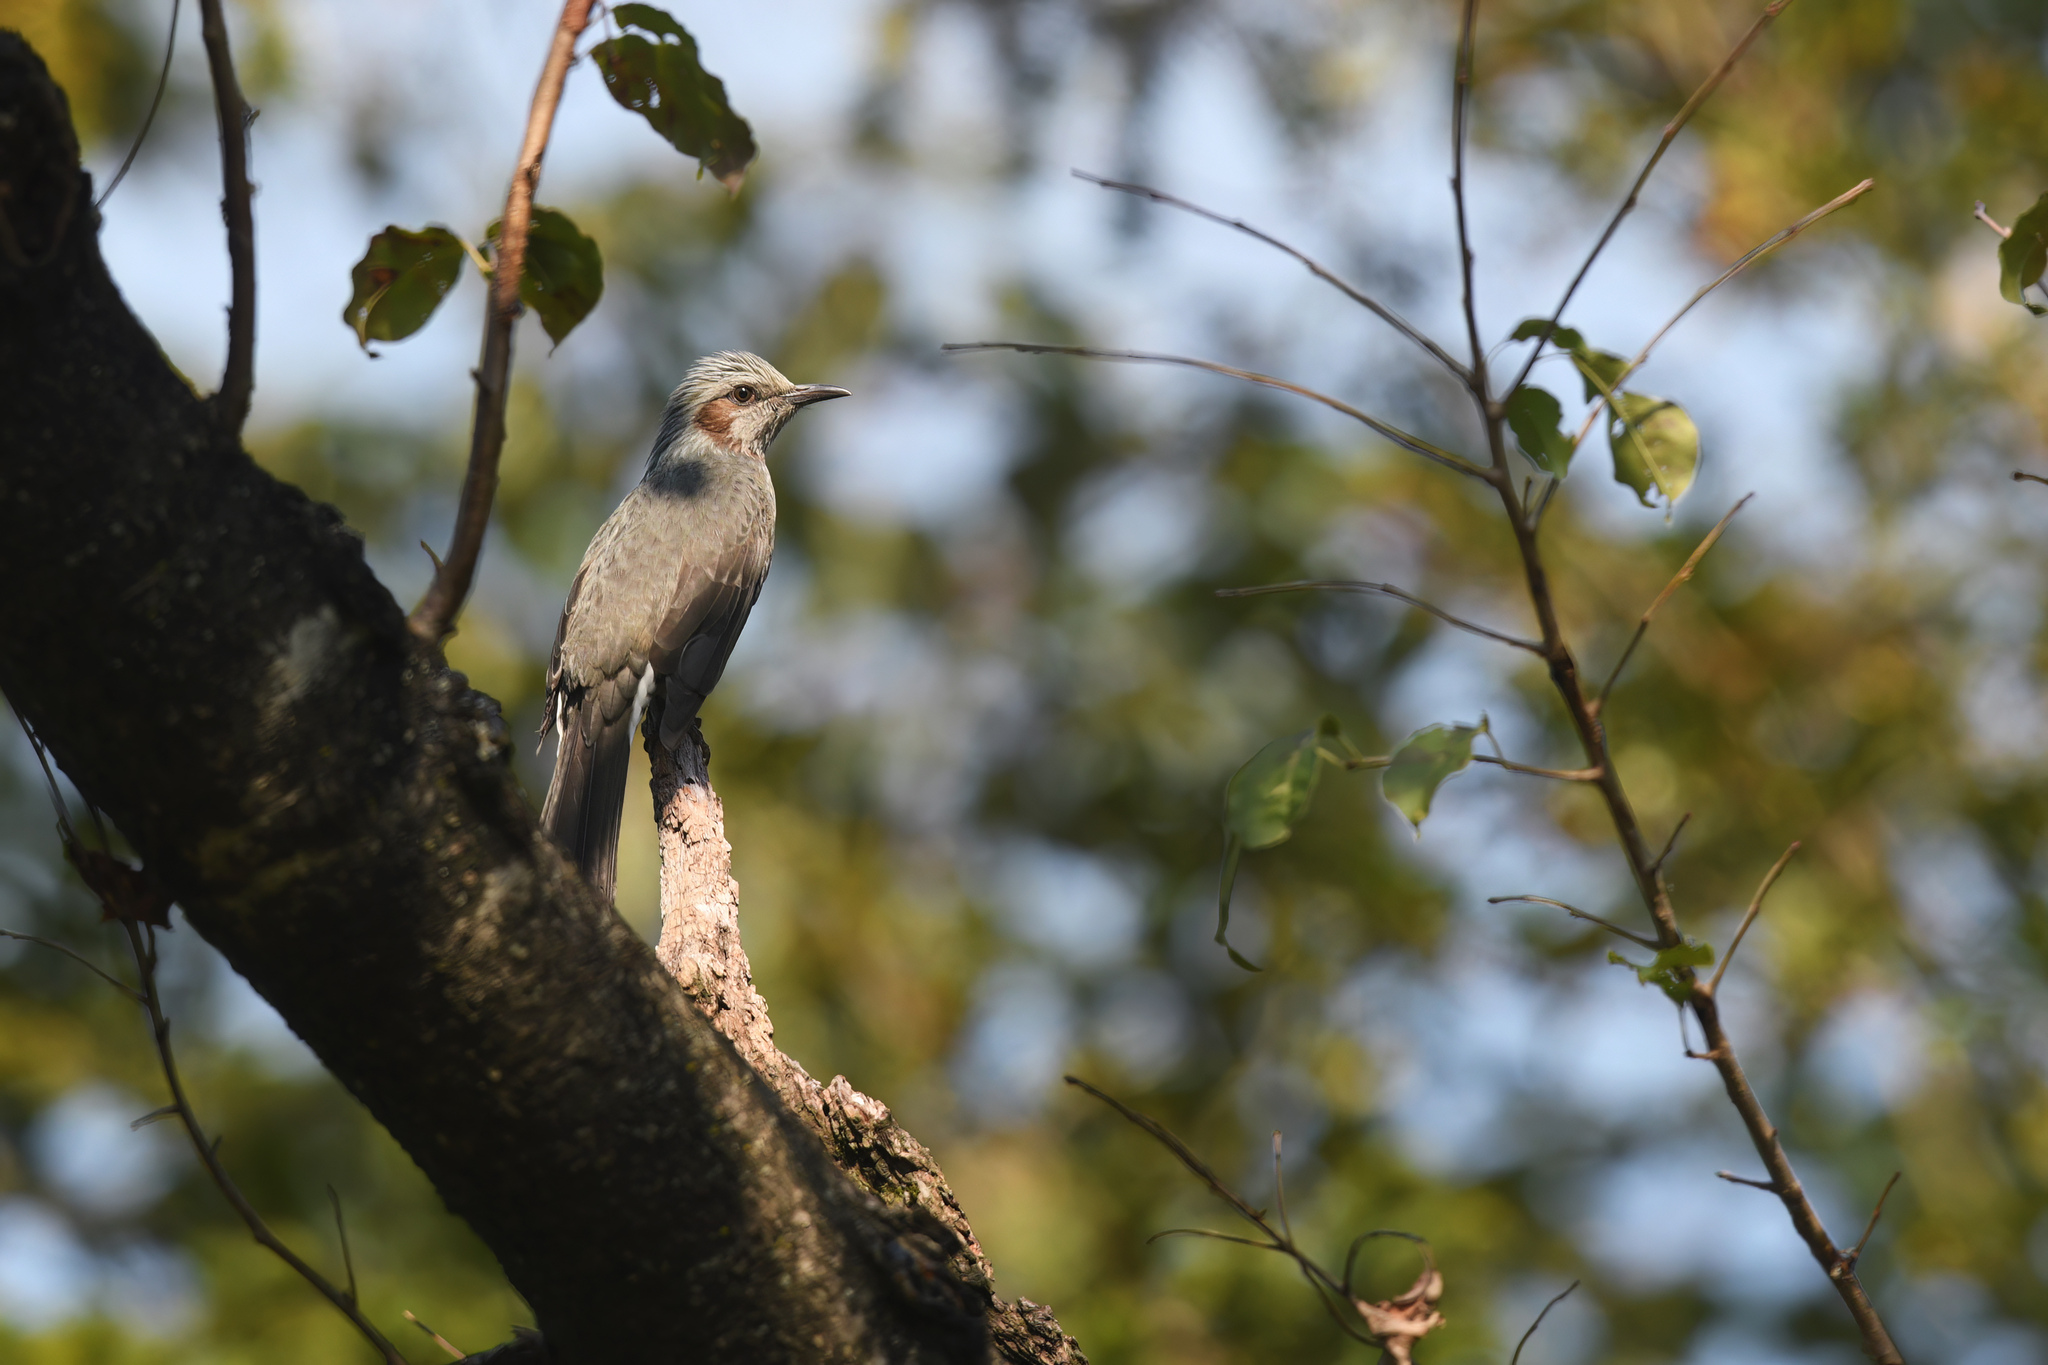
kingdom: Animalia
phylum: Chordata
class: Aves
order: Passeriformes
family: Pycnonotidae
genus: Hypsipetes
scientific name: Hypsipetes amaurotis
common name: Brown-eared bulbul
